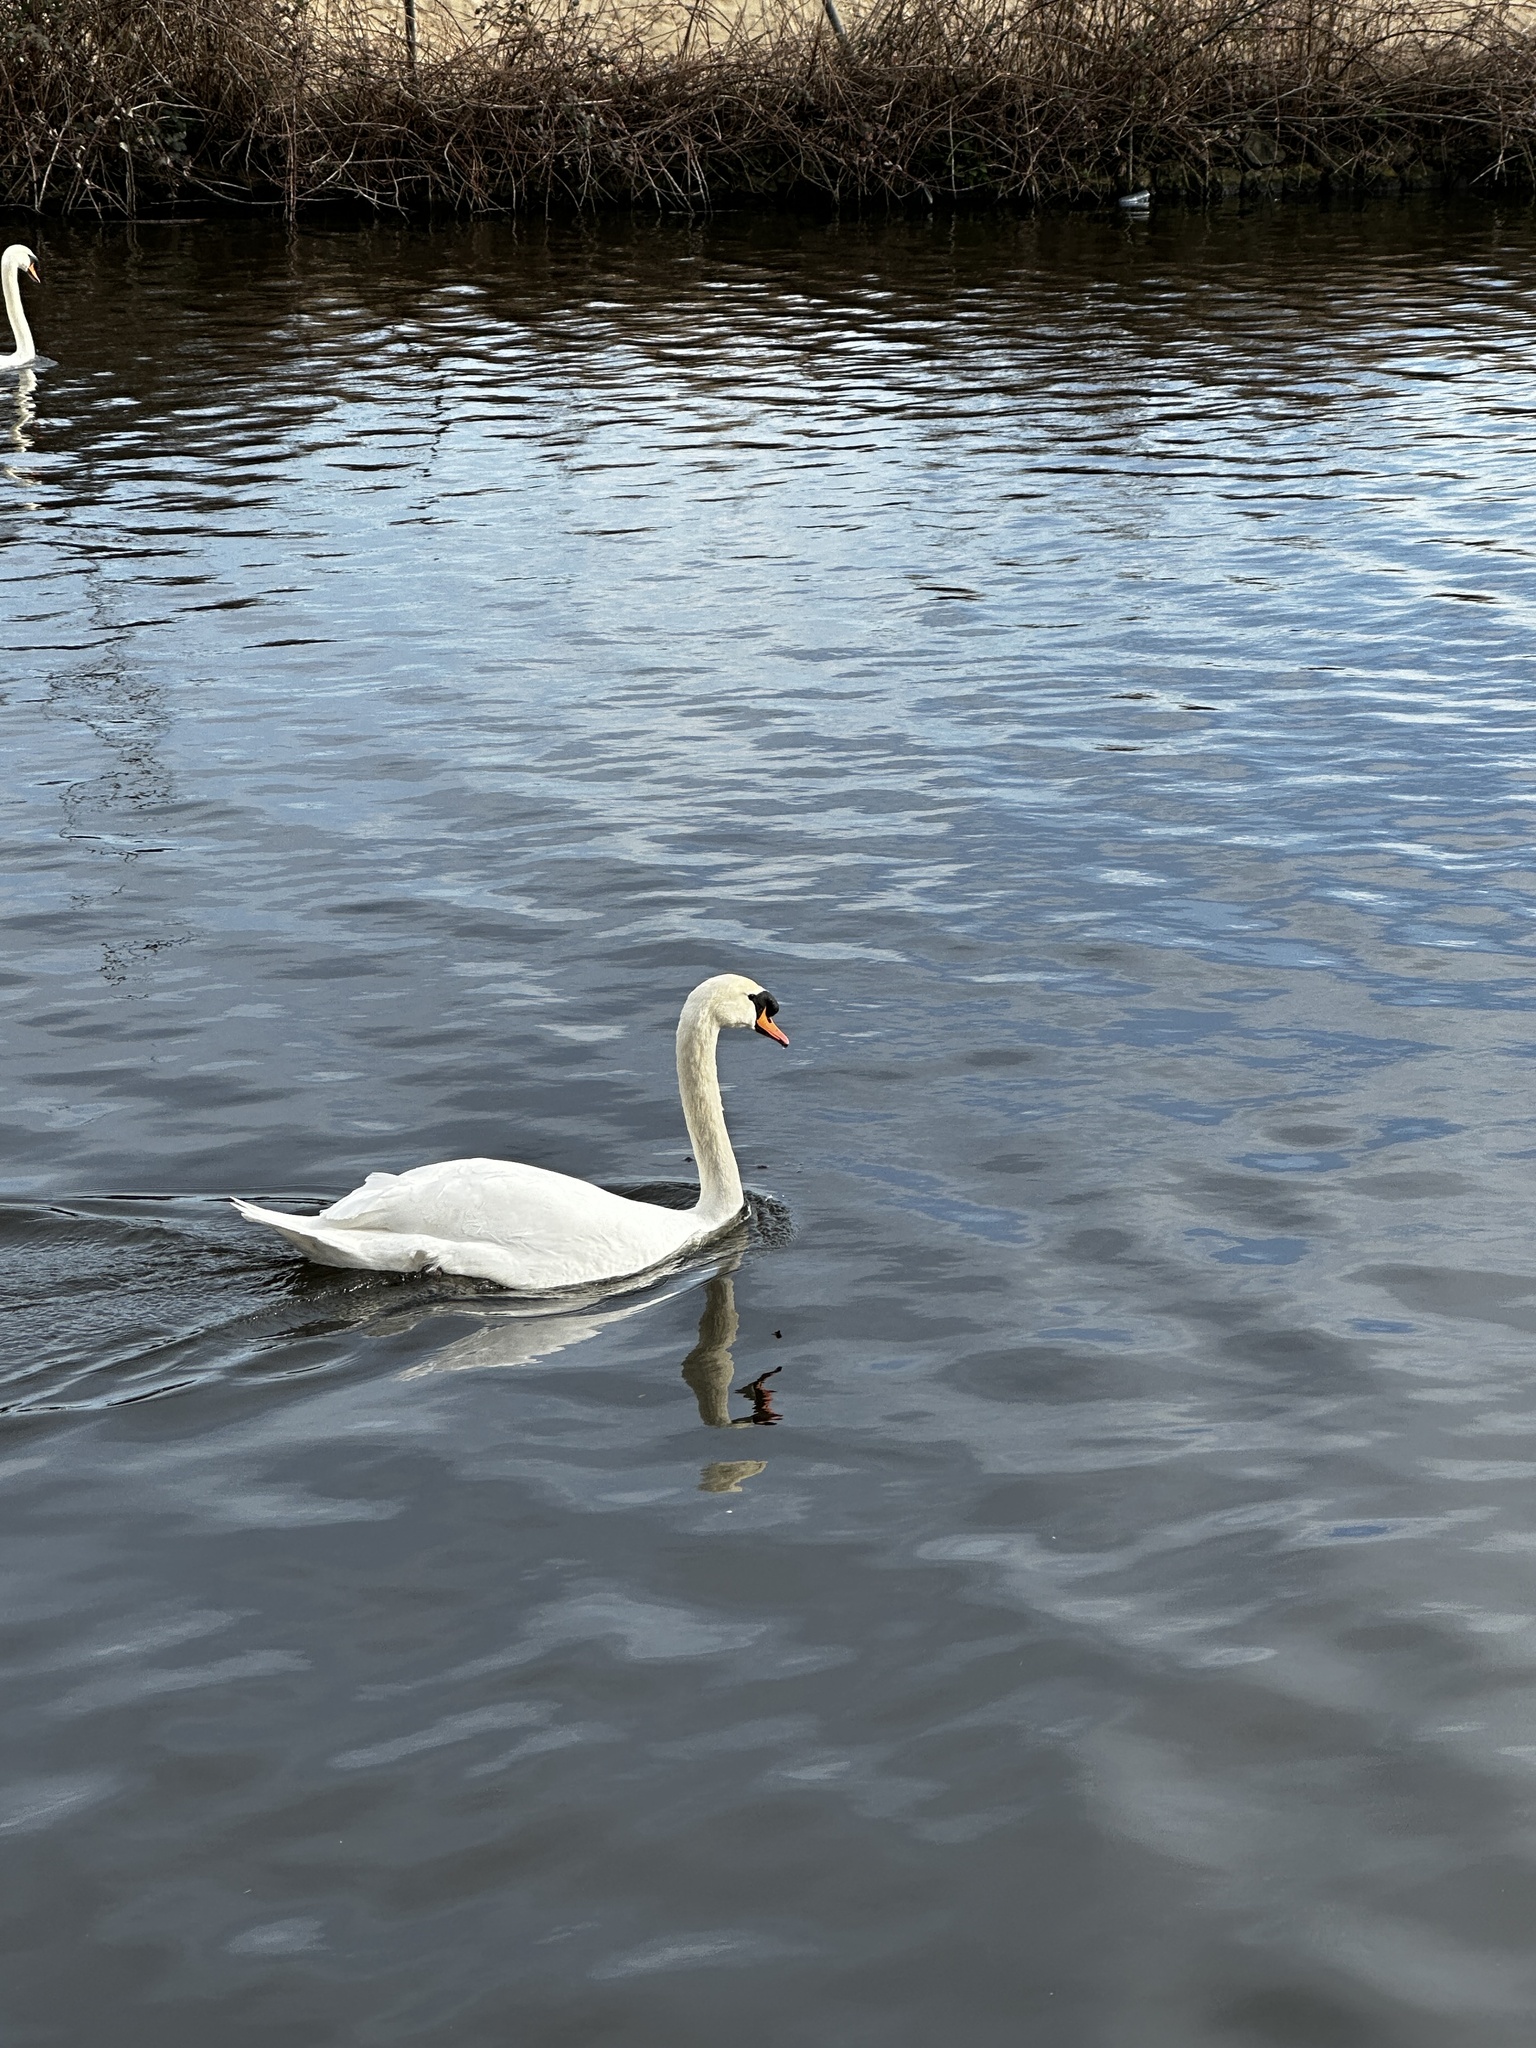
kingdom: Animalia
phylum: Chordata
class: Aves
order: Anseriformes
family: Anatidae
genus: Cygnus
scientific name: Cygnus olor
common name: Mute swan
